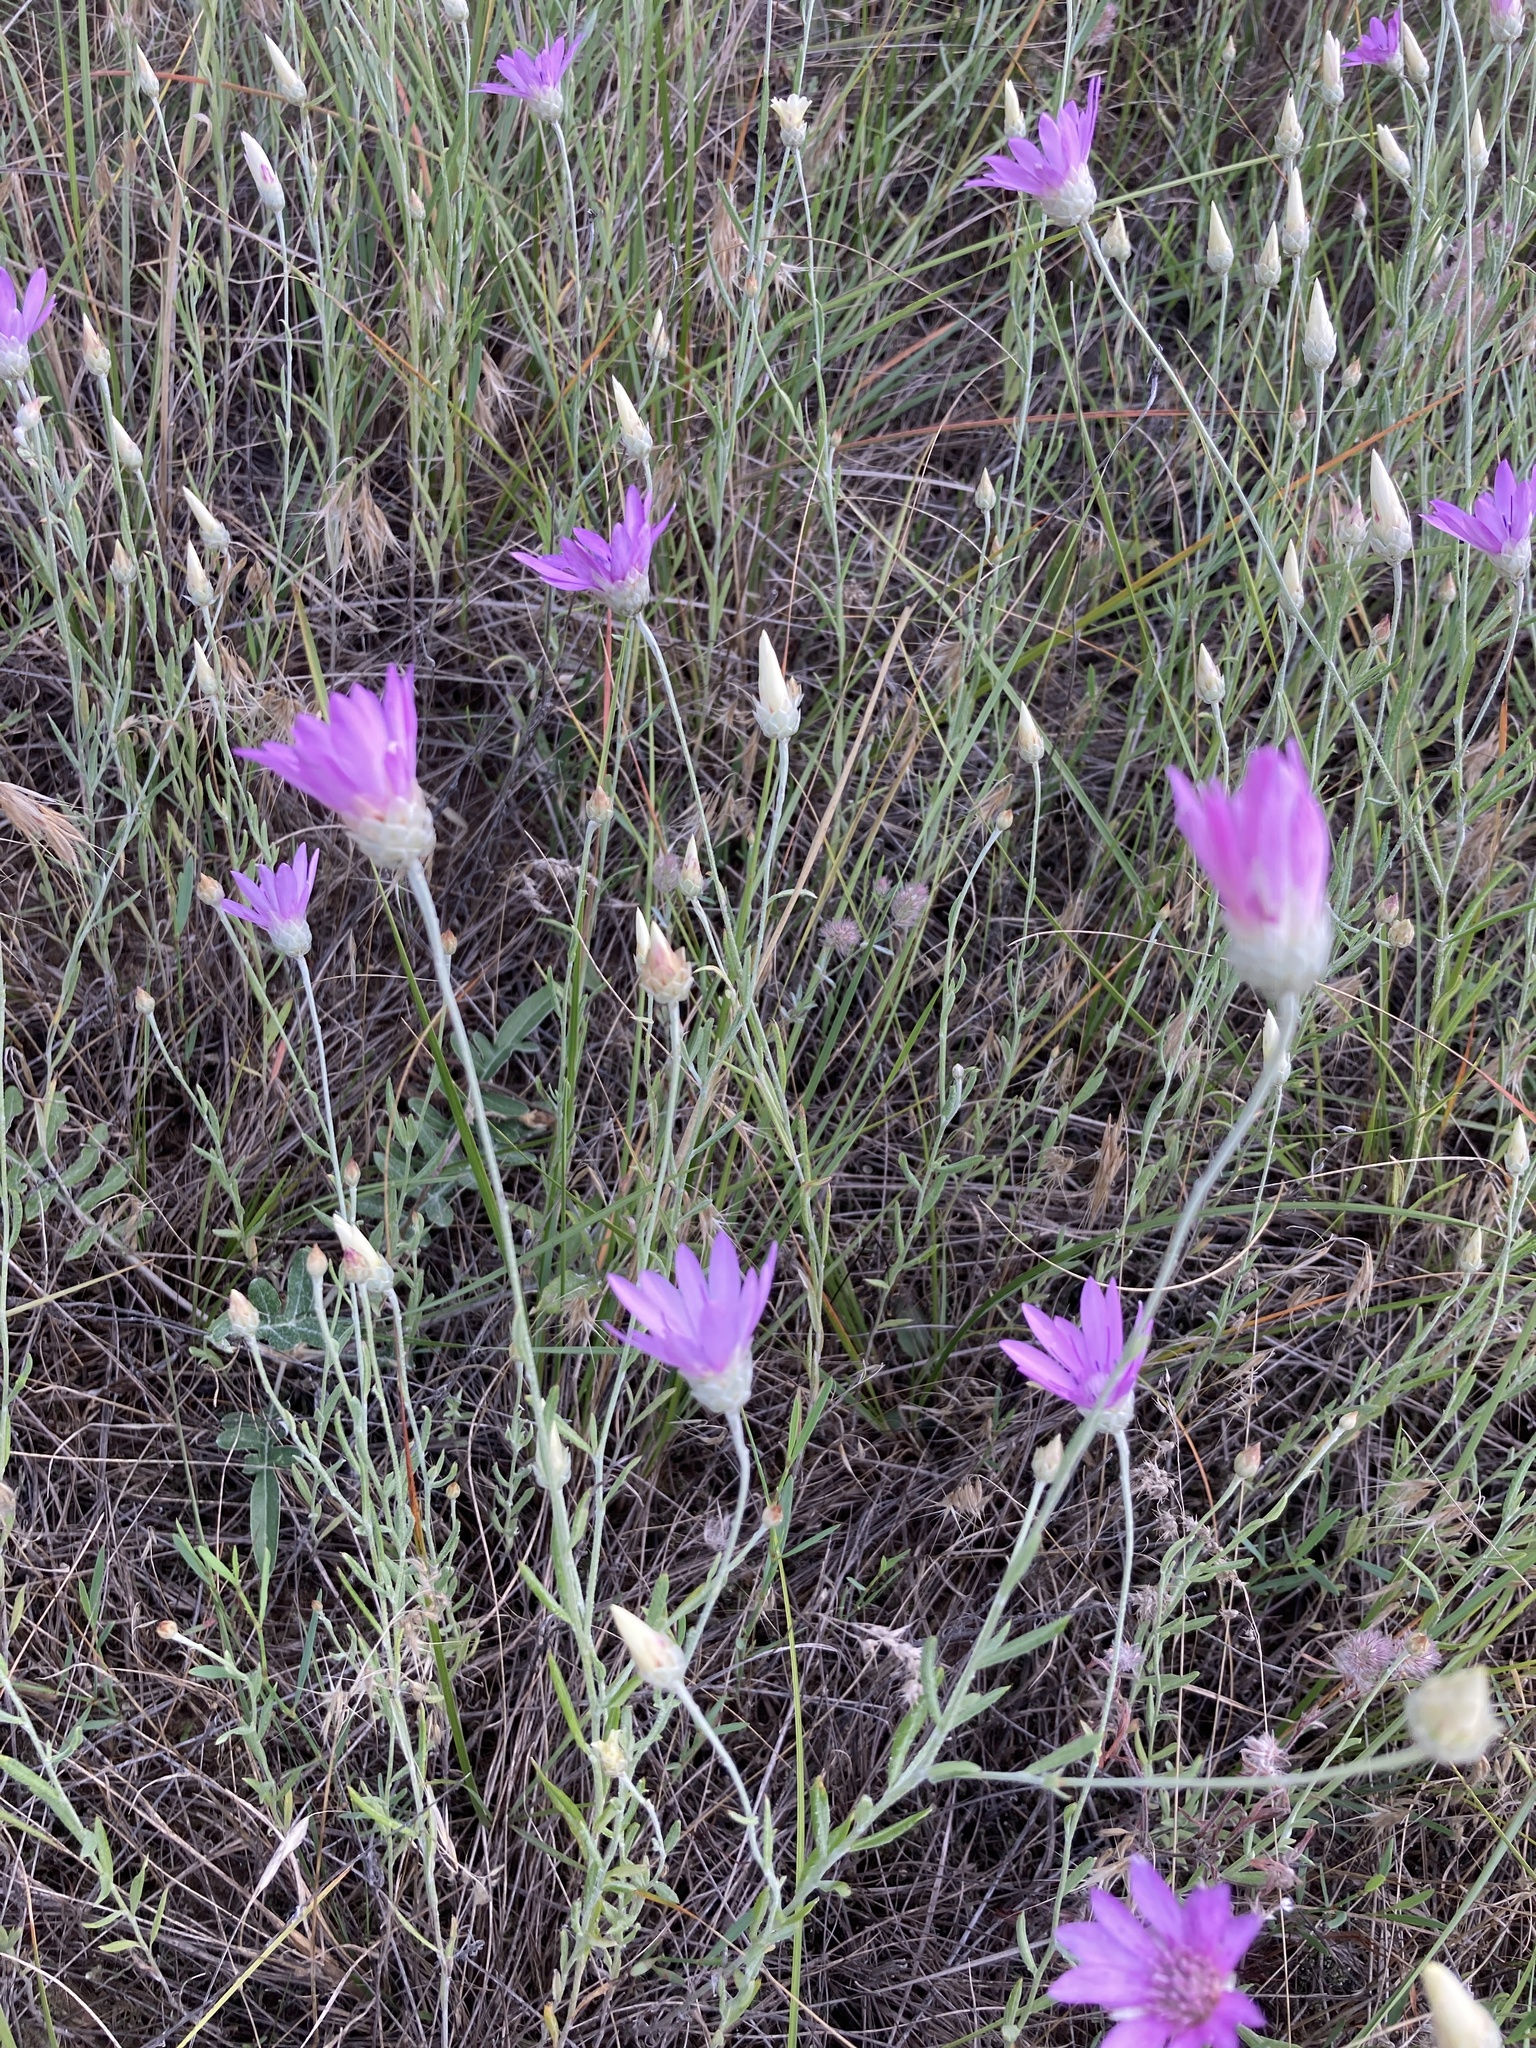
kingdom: Plantae
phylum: Tracheophyta
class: Magnoliopsida
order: Asterales
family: Asteraceae
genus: Xeranthemum
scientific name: Xeranthemum annuum
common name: Immortelle
